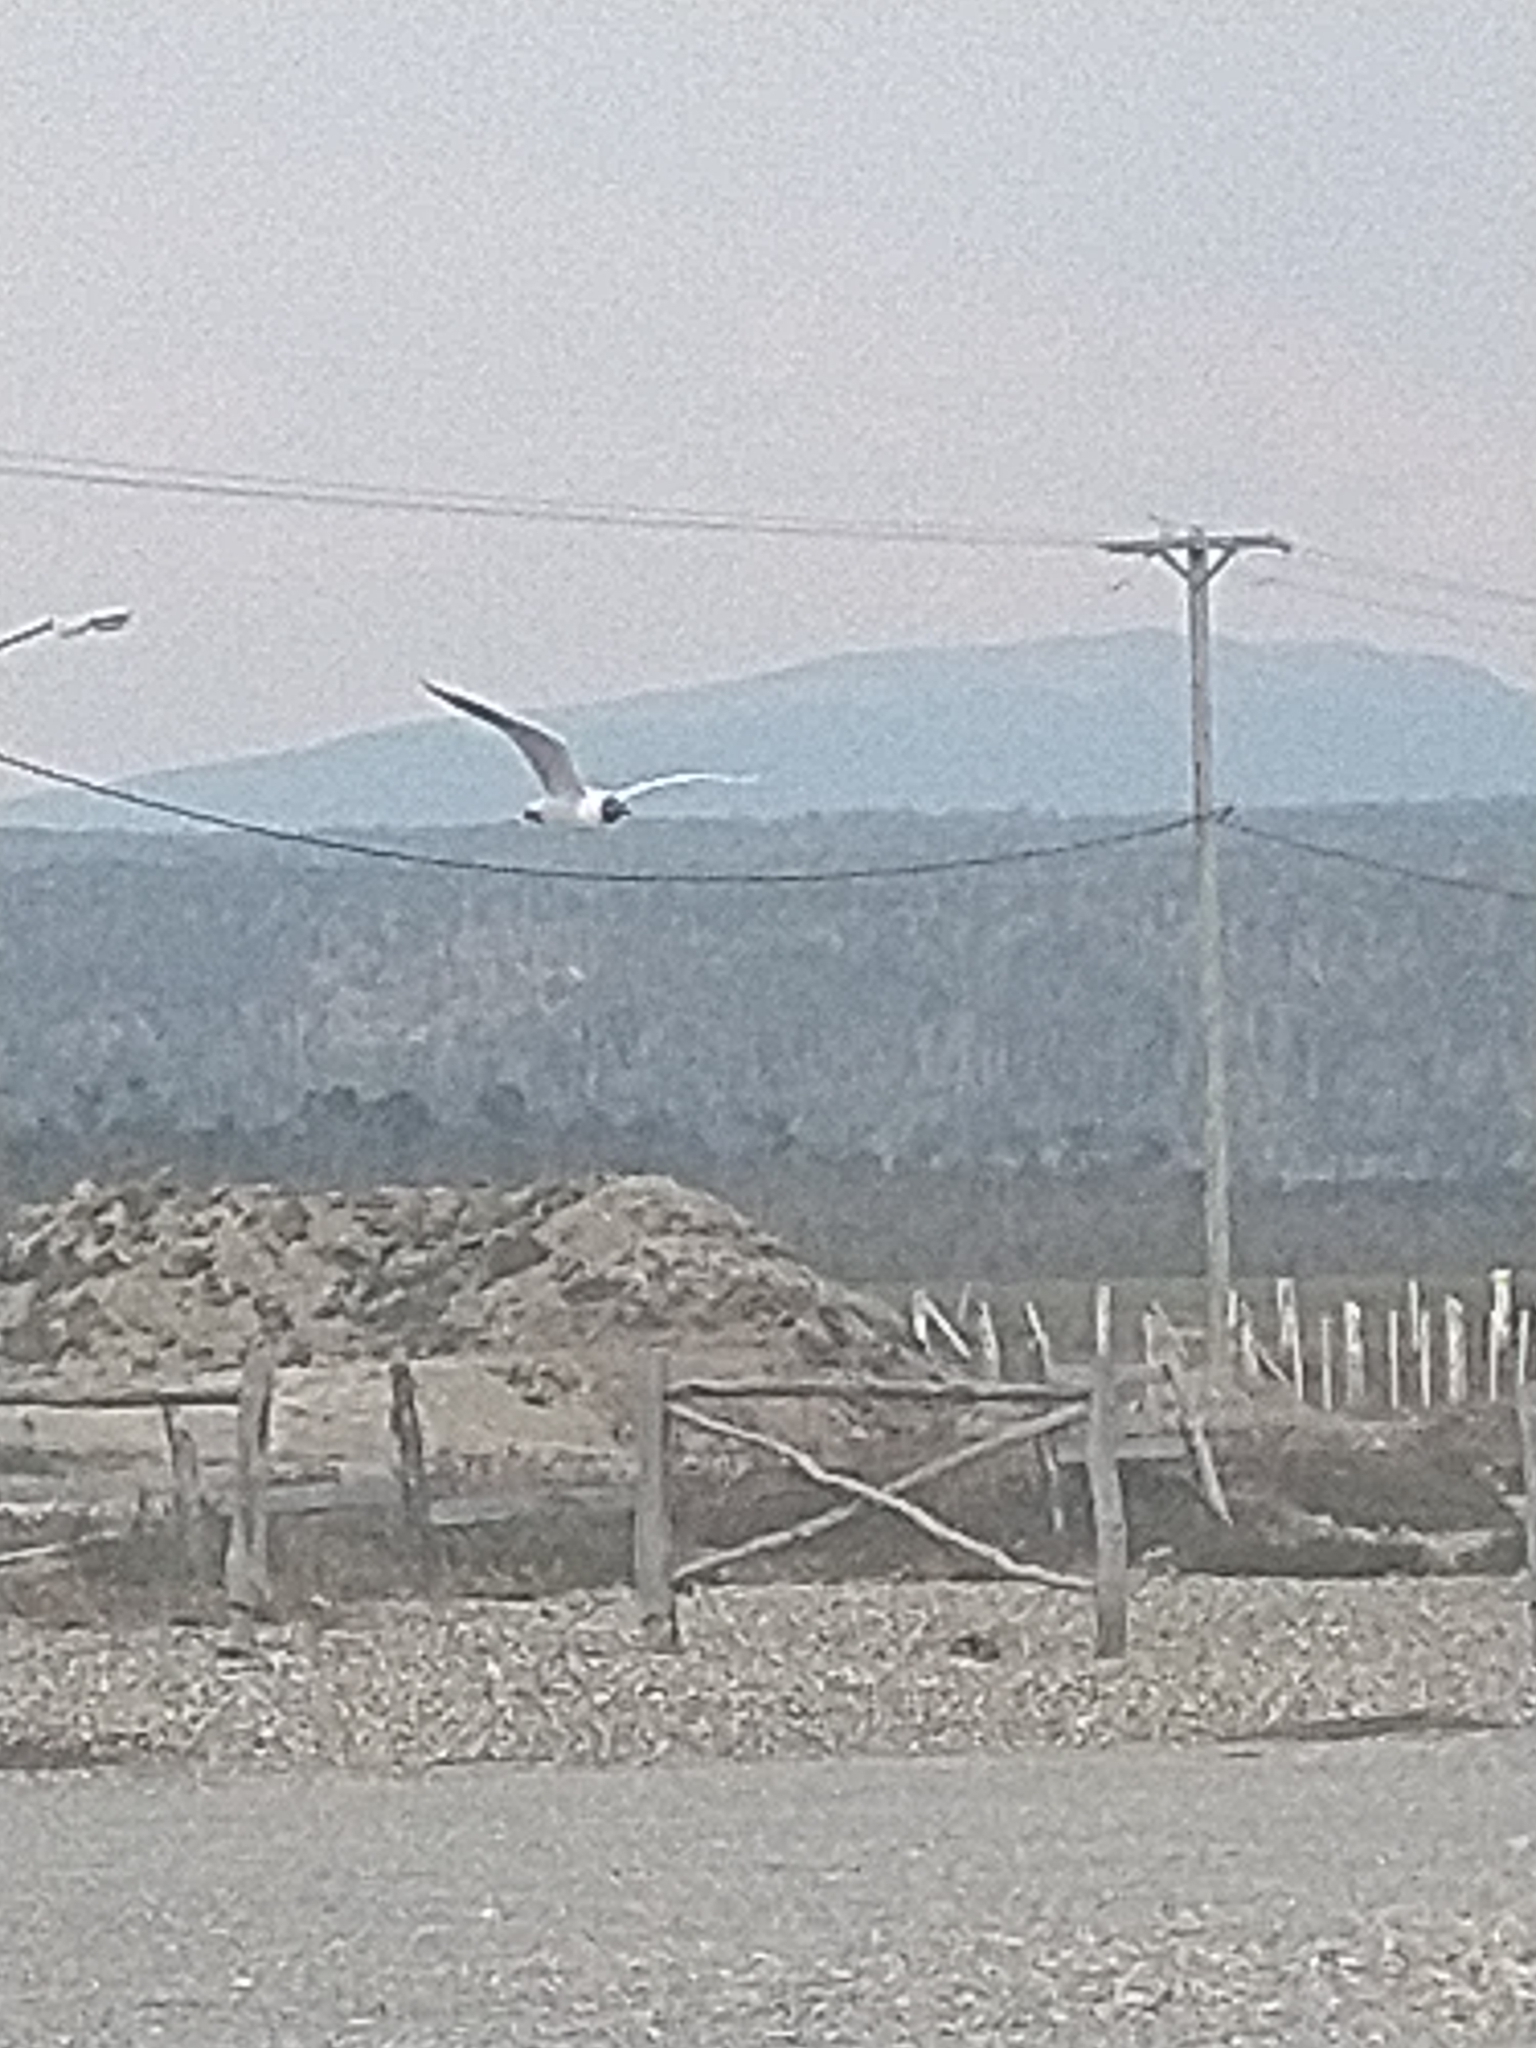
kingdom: Animalia
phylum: Chordata
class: Aves
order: Charadriiformes
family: Laridae
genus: Chroicocephalus
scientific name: Chroicocephalus maculipennis
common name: Brown-hooded gull
